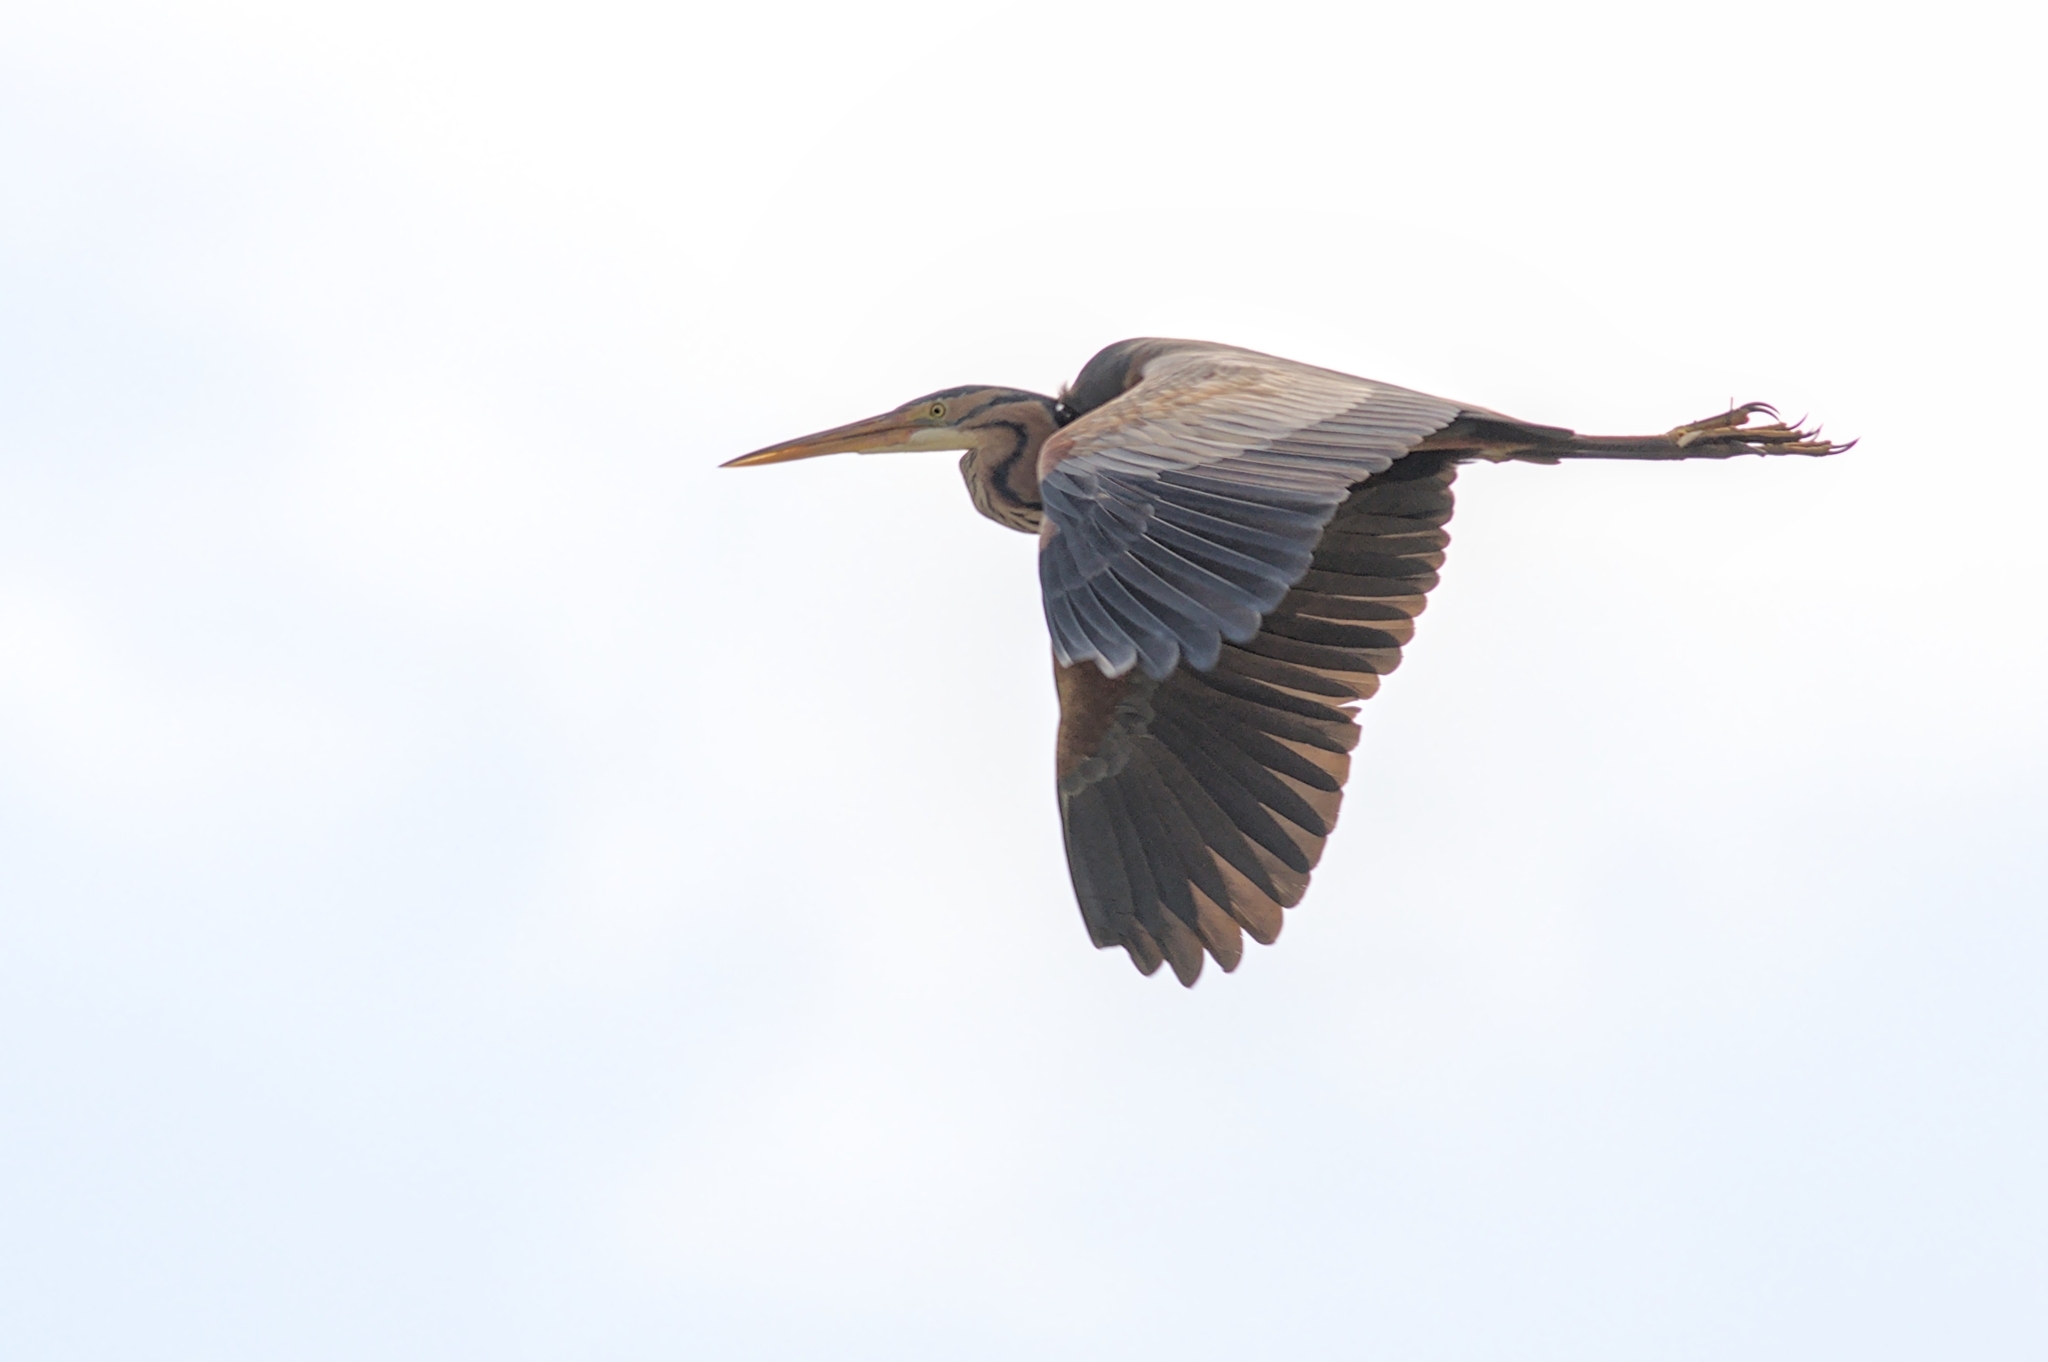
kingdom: Animalia
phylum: Chordata
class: Aves
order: Pelecaniformes
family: Ardeidae
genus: Ardea
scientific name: Ardea purpurea
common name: Purple heron
